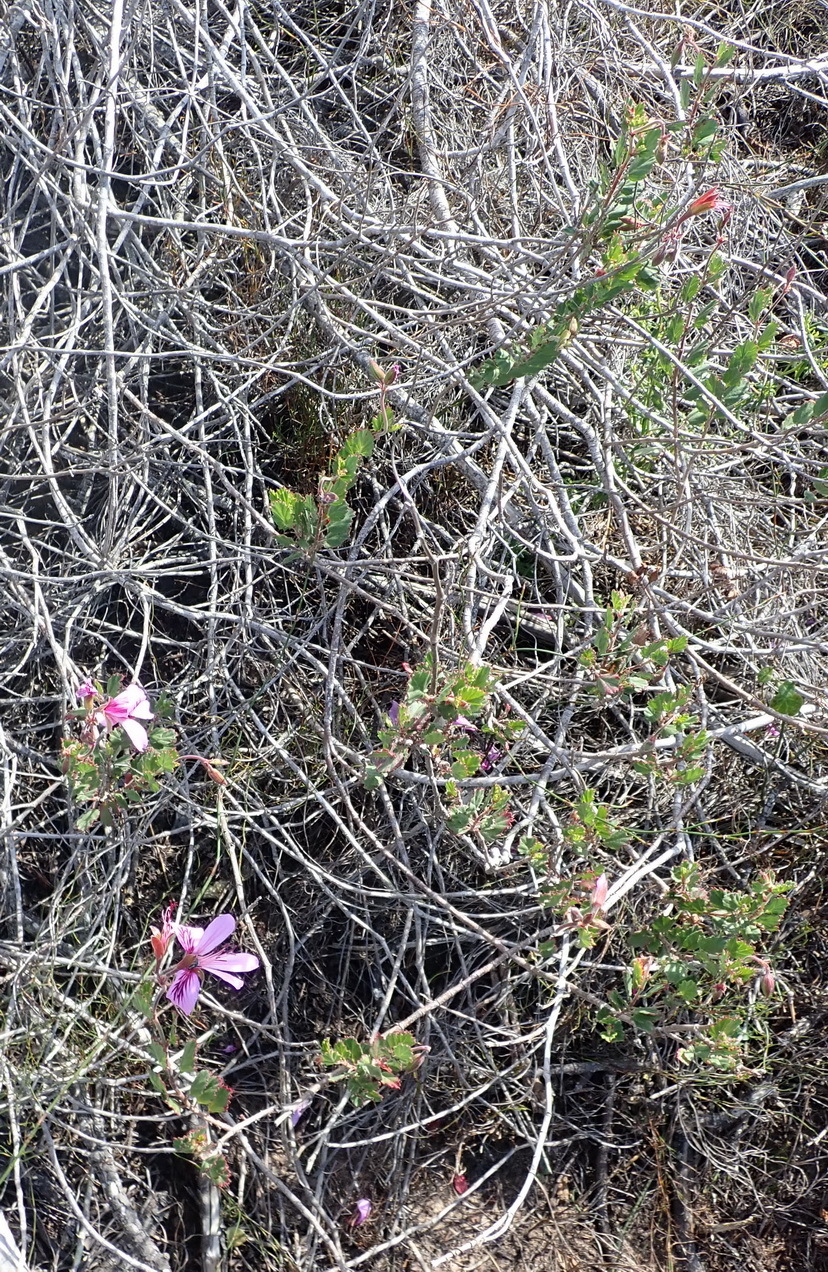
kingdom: Plantae
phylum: Tracheophyta
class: Magnoliopsida
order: Geraniales
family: Geraniaceae
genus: Pelargonium
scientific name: Pelargonium betulinum
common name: Birch-leaf pelargonium
